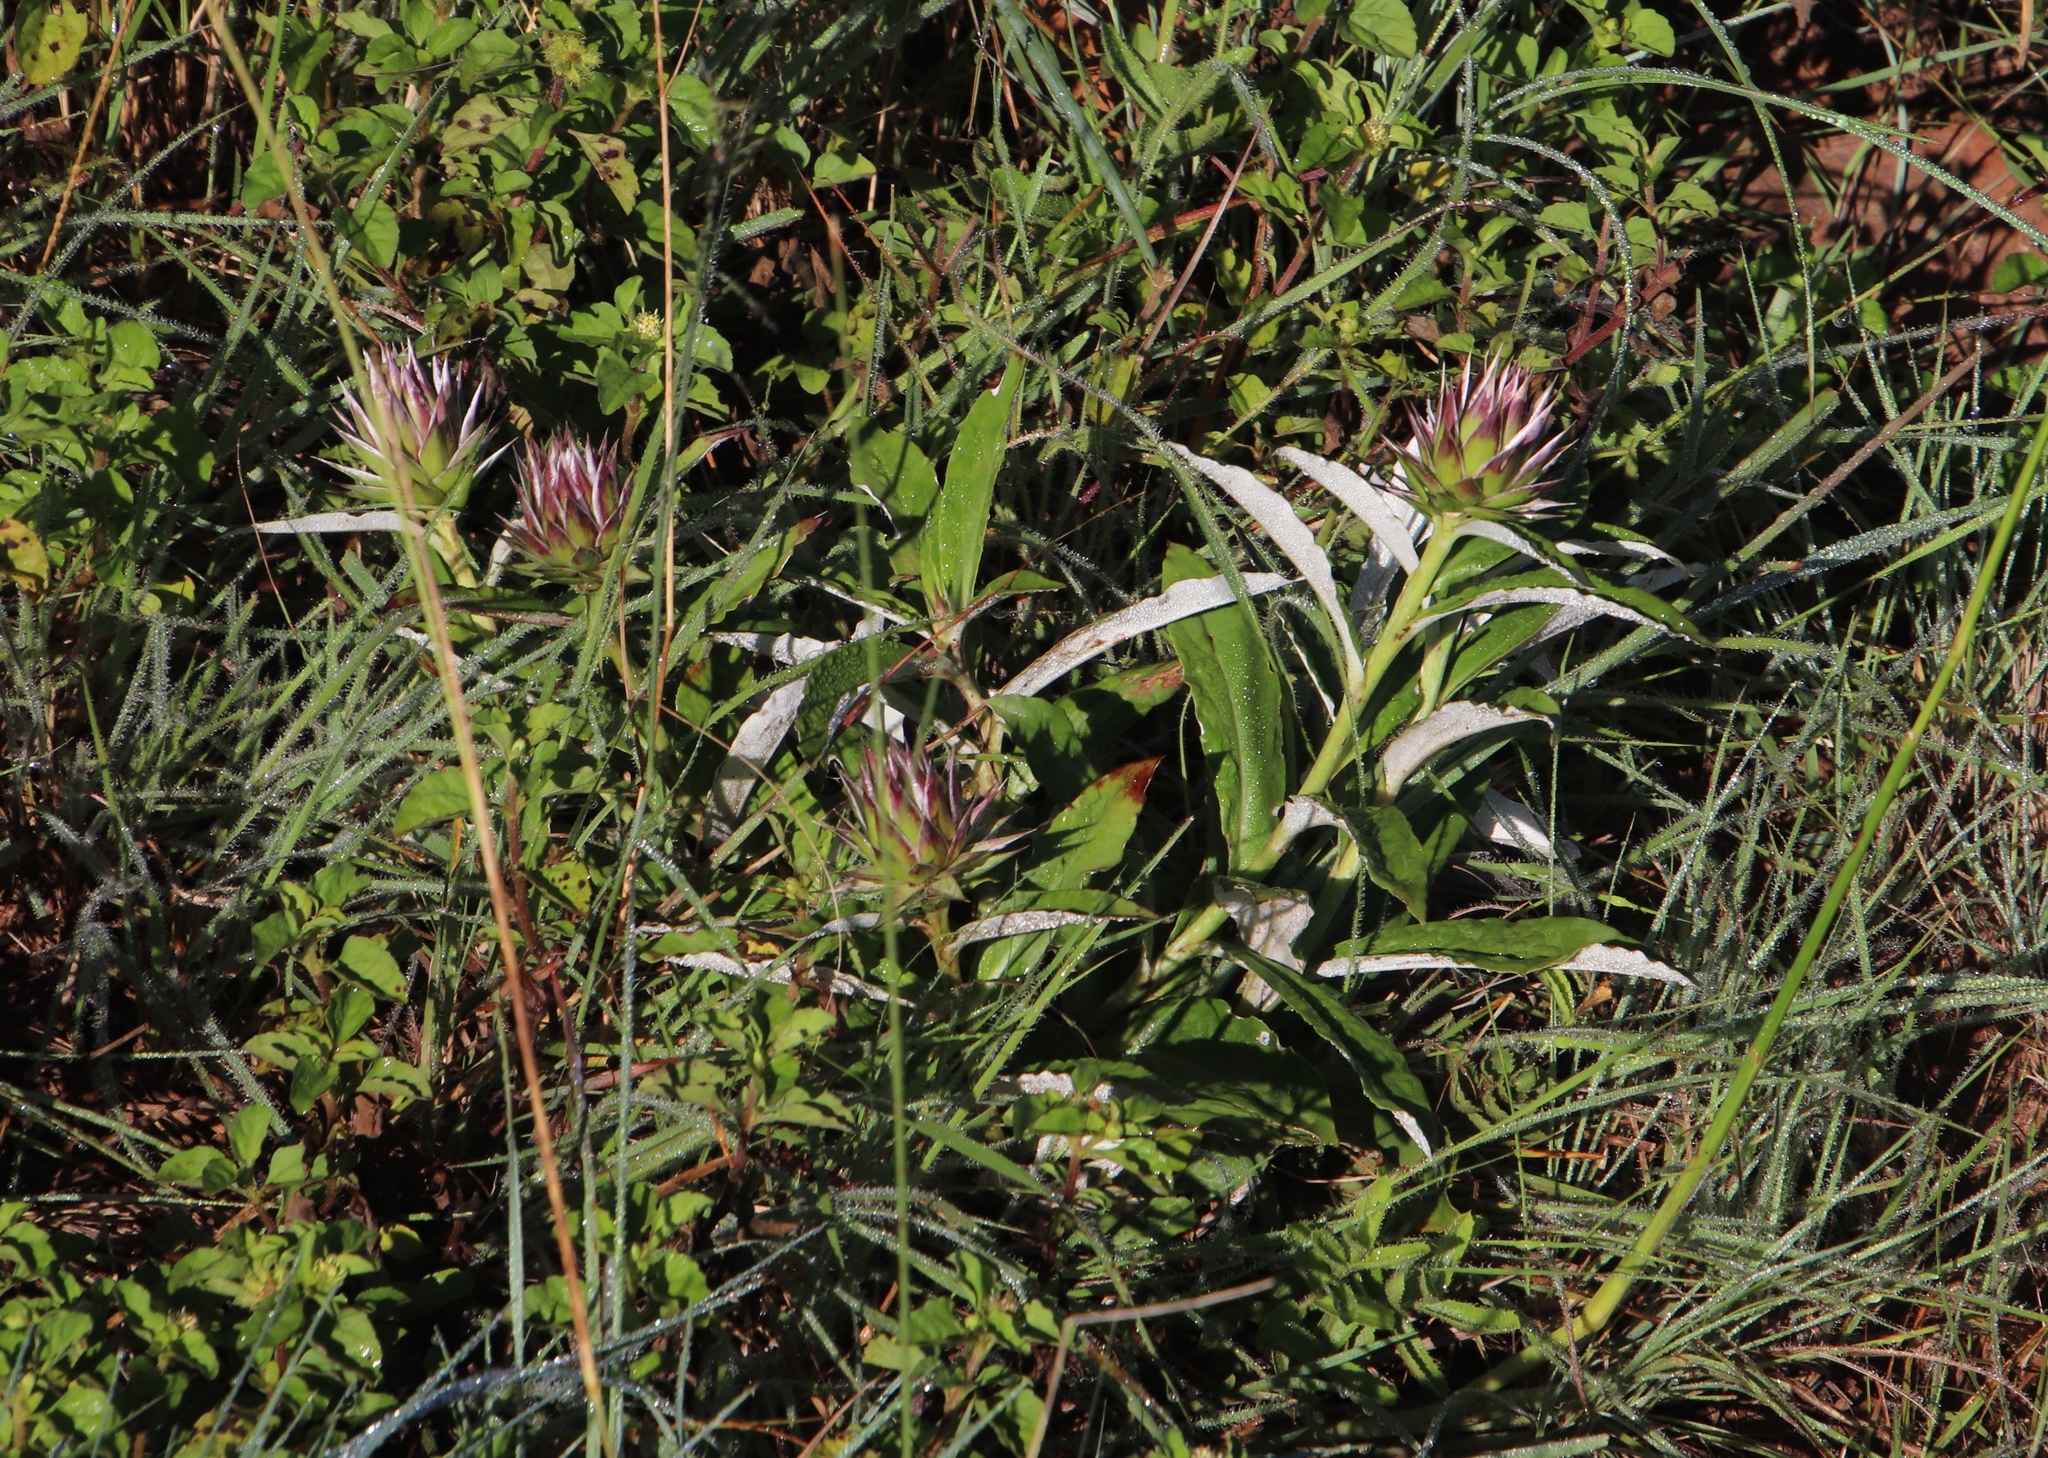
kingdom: Plantae
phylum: Tracheophyta
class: Magnoliopsida
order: Asterales
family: Asteraceae
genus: Macledium
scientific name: Macledium zeyheri
